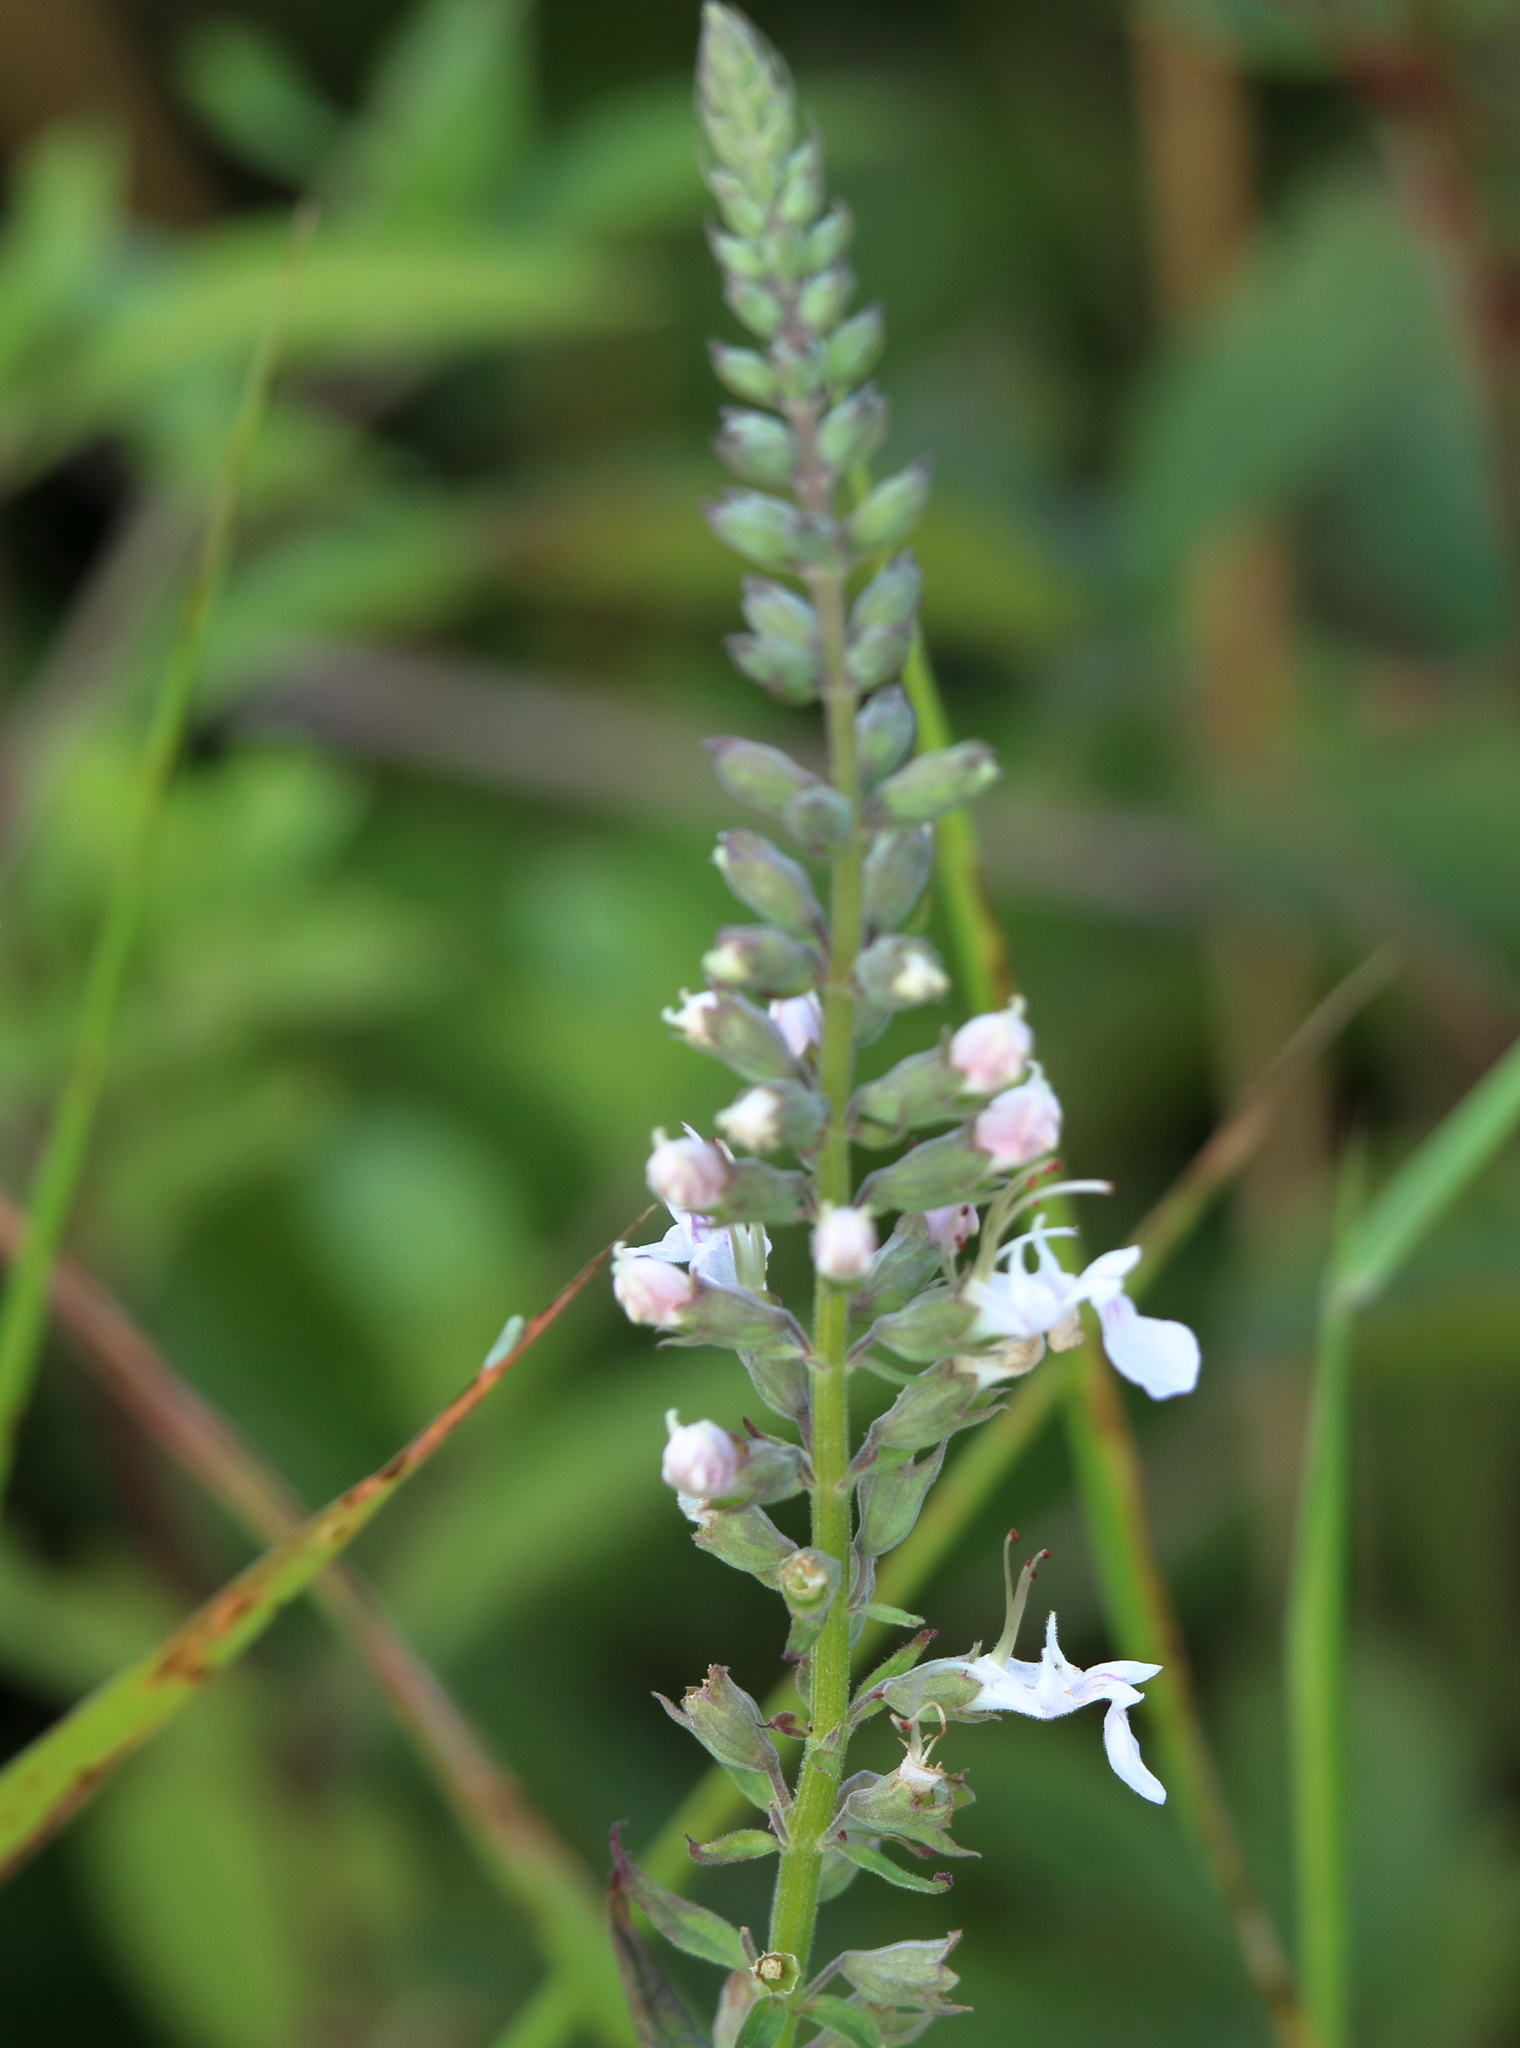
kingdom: Plantae
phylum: Tracheophyta
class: Magnoliopsida
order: Lamiales
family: Lamiaceae
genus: Teucrium
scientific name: Teucrium canadense
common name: American germander
